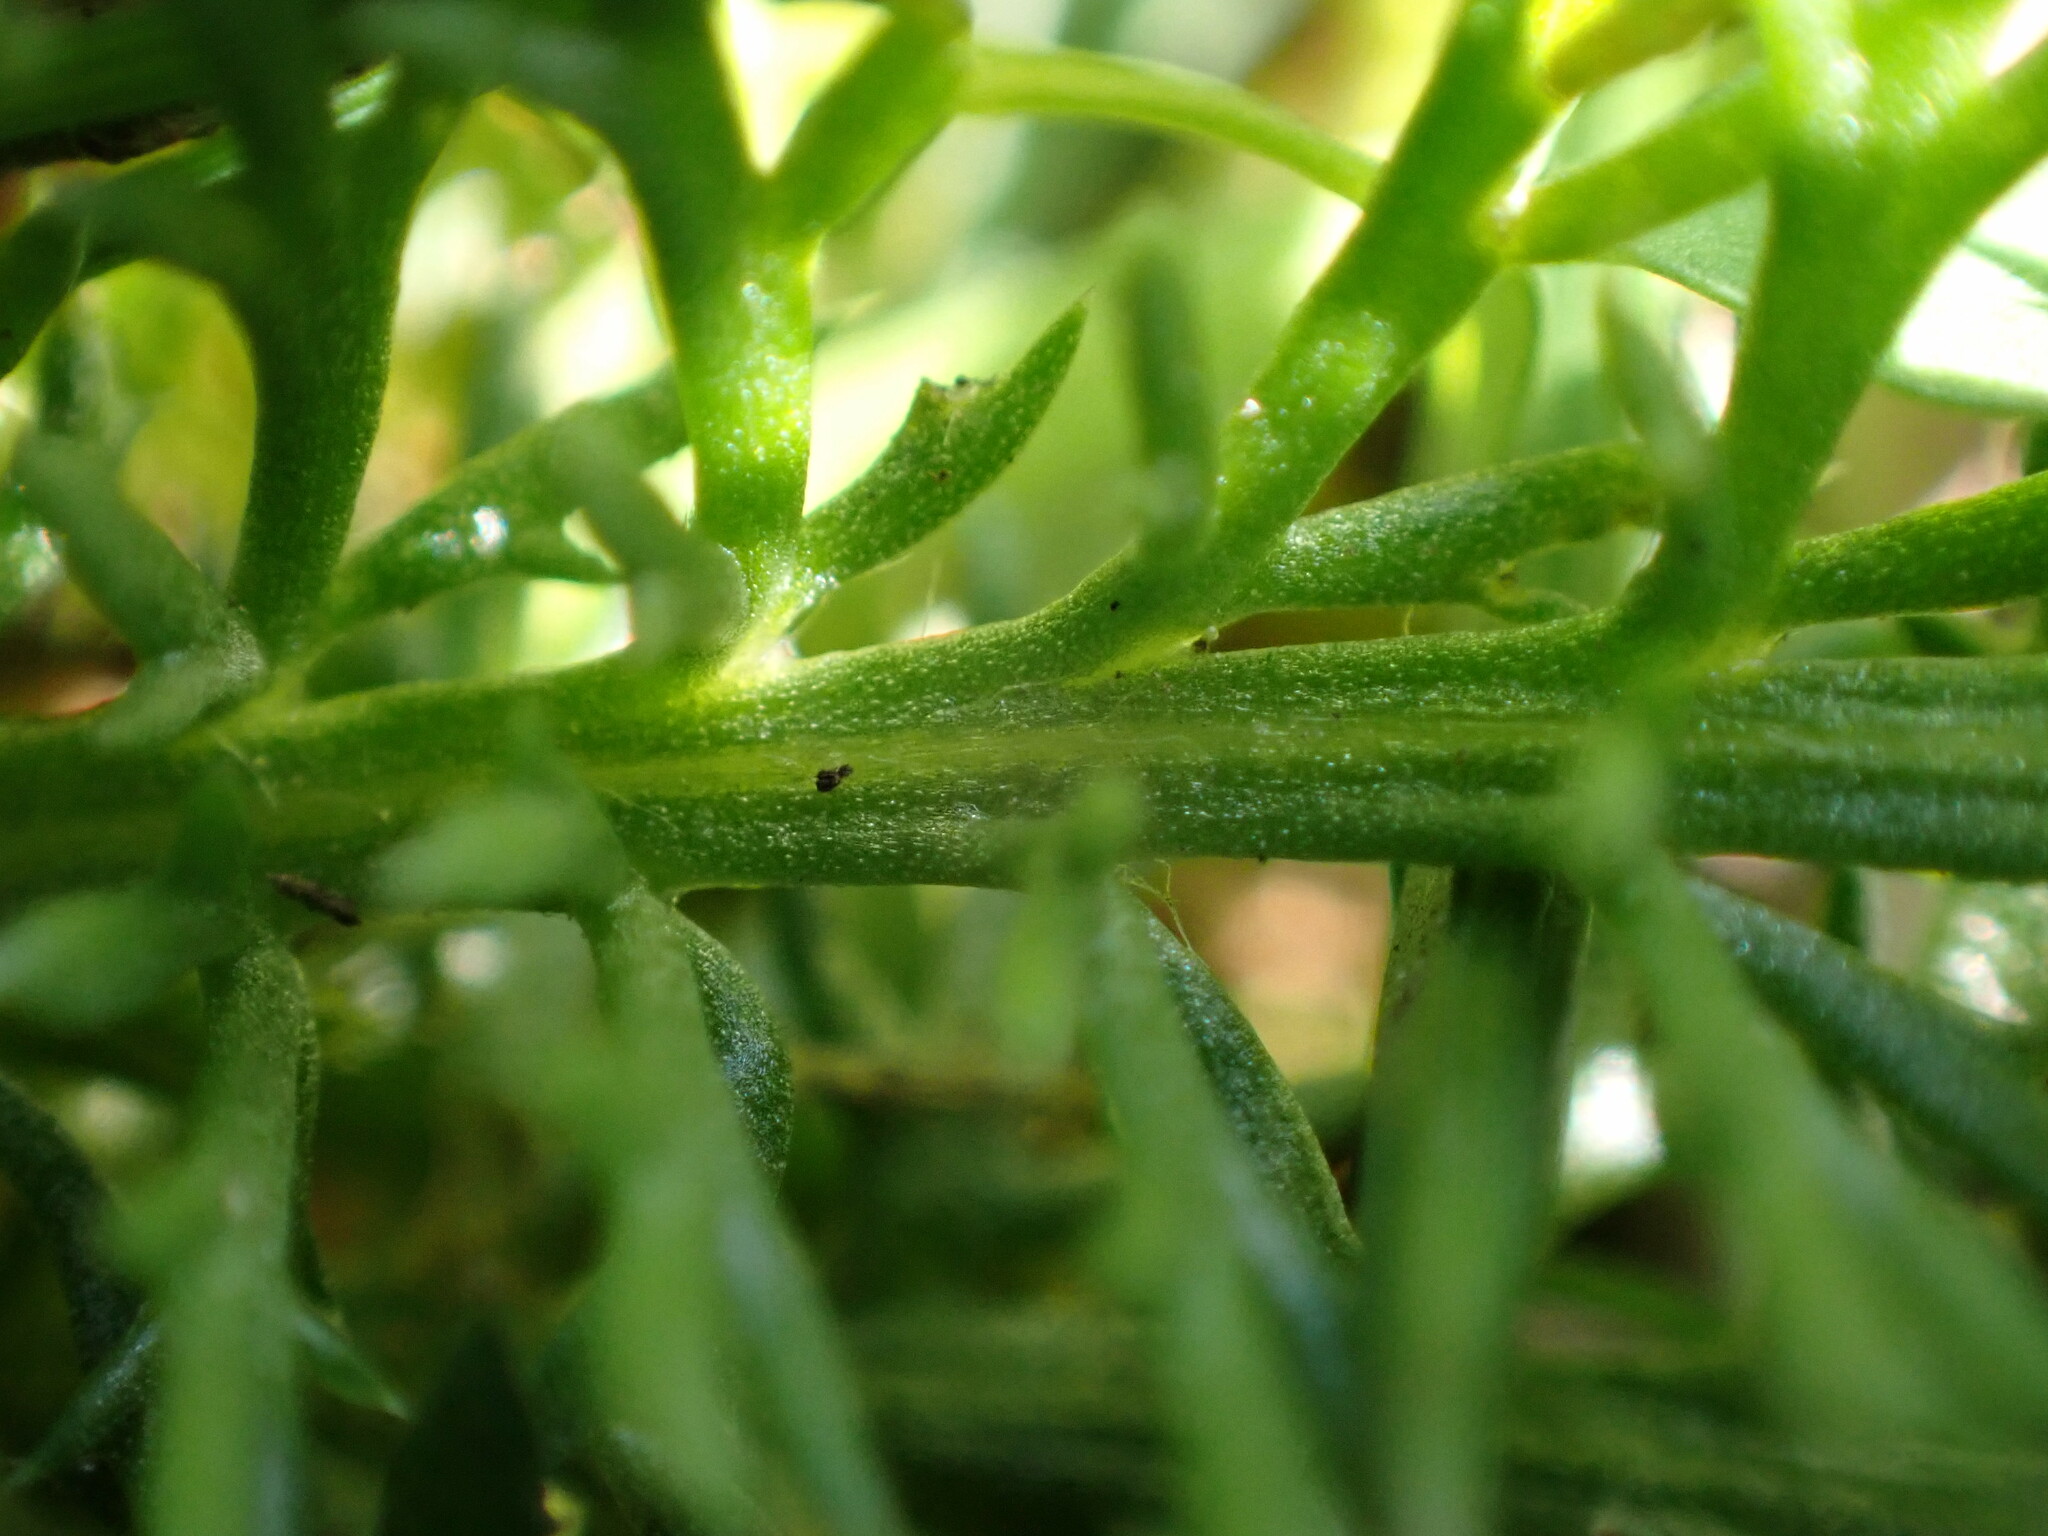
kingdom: Plantae
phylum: Tracheophyta
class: Magnoliopsida
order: Asterales
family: Asteraceae
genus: Achillea
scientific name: Achillea millefolium
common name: Yarrow
